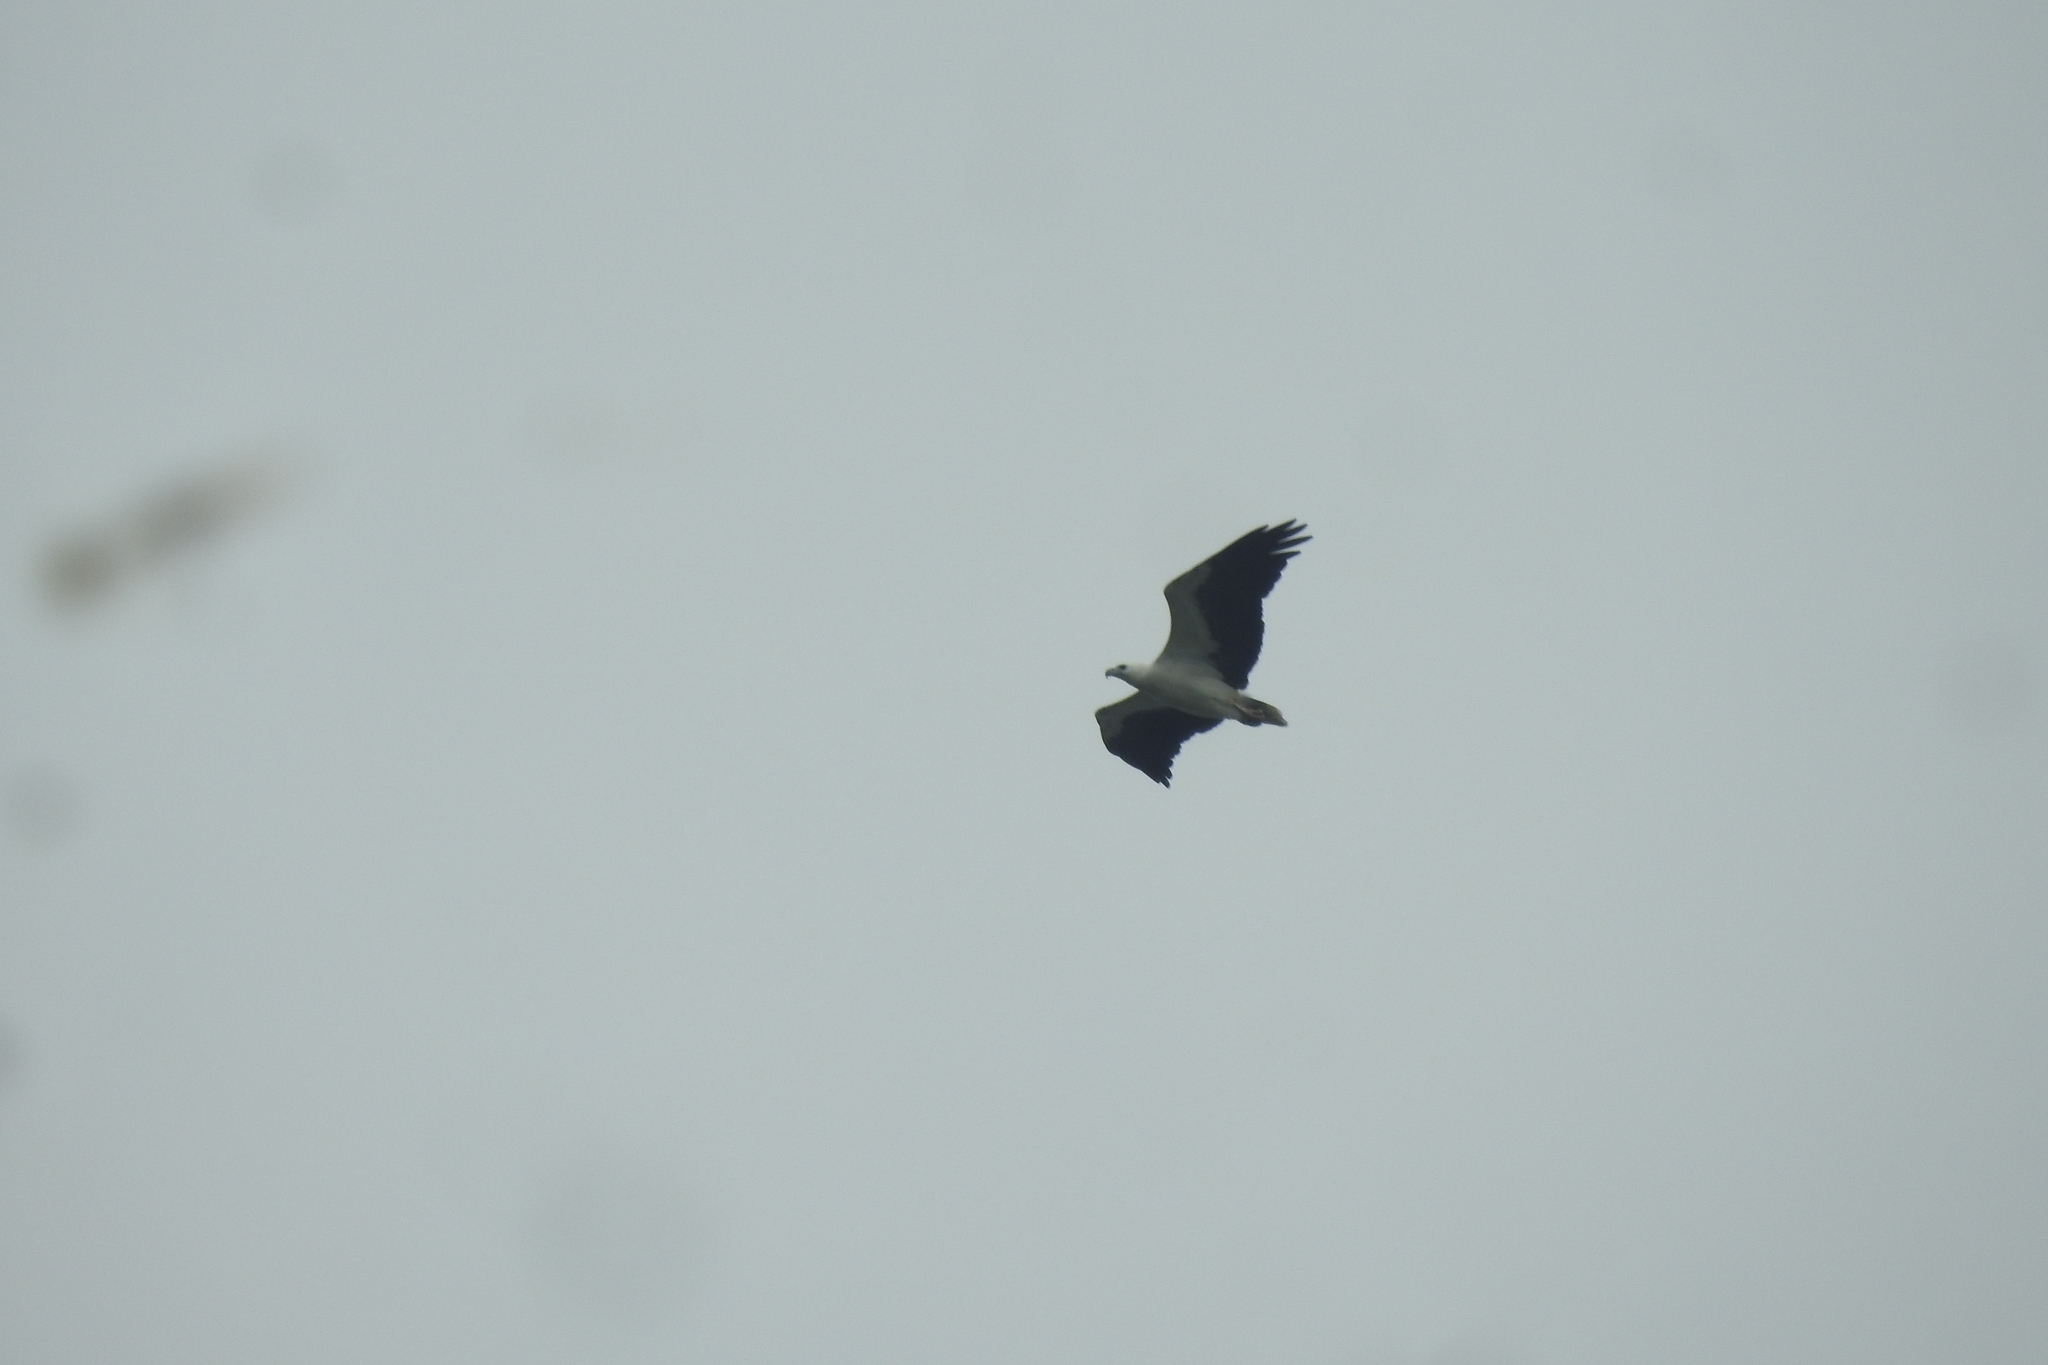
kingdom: Animalia
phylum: Chordata
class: Aves
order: Accipitriformes
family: Accipitridae
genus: Haliaeetus
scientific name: Haliaeetus leucogaster
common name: White-bellied sea eagle
